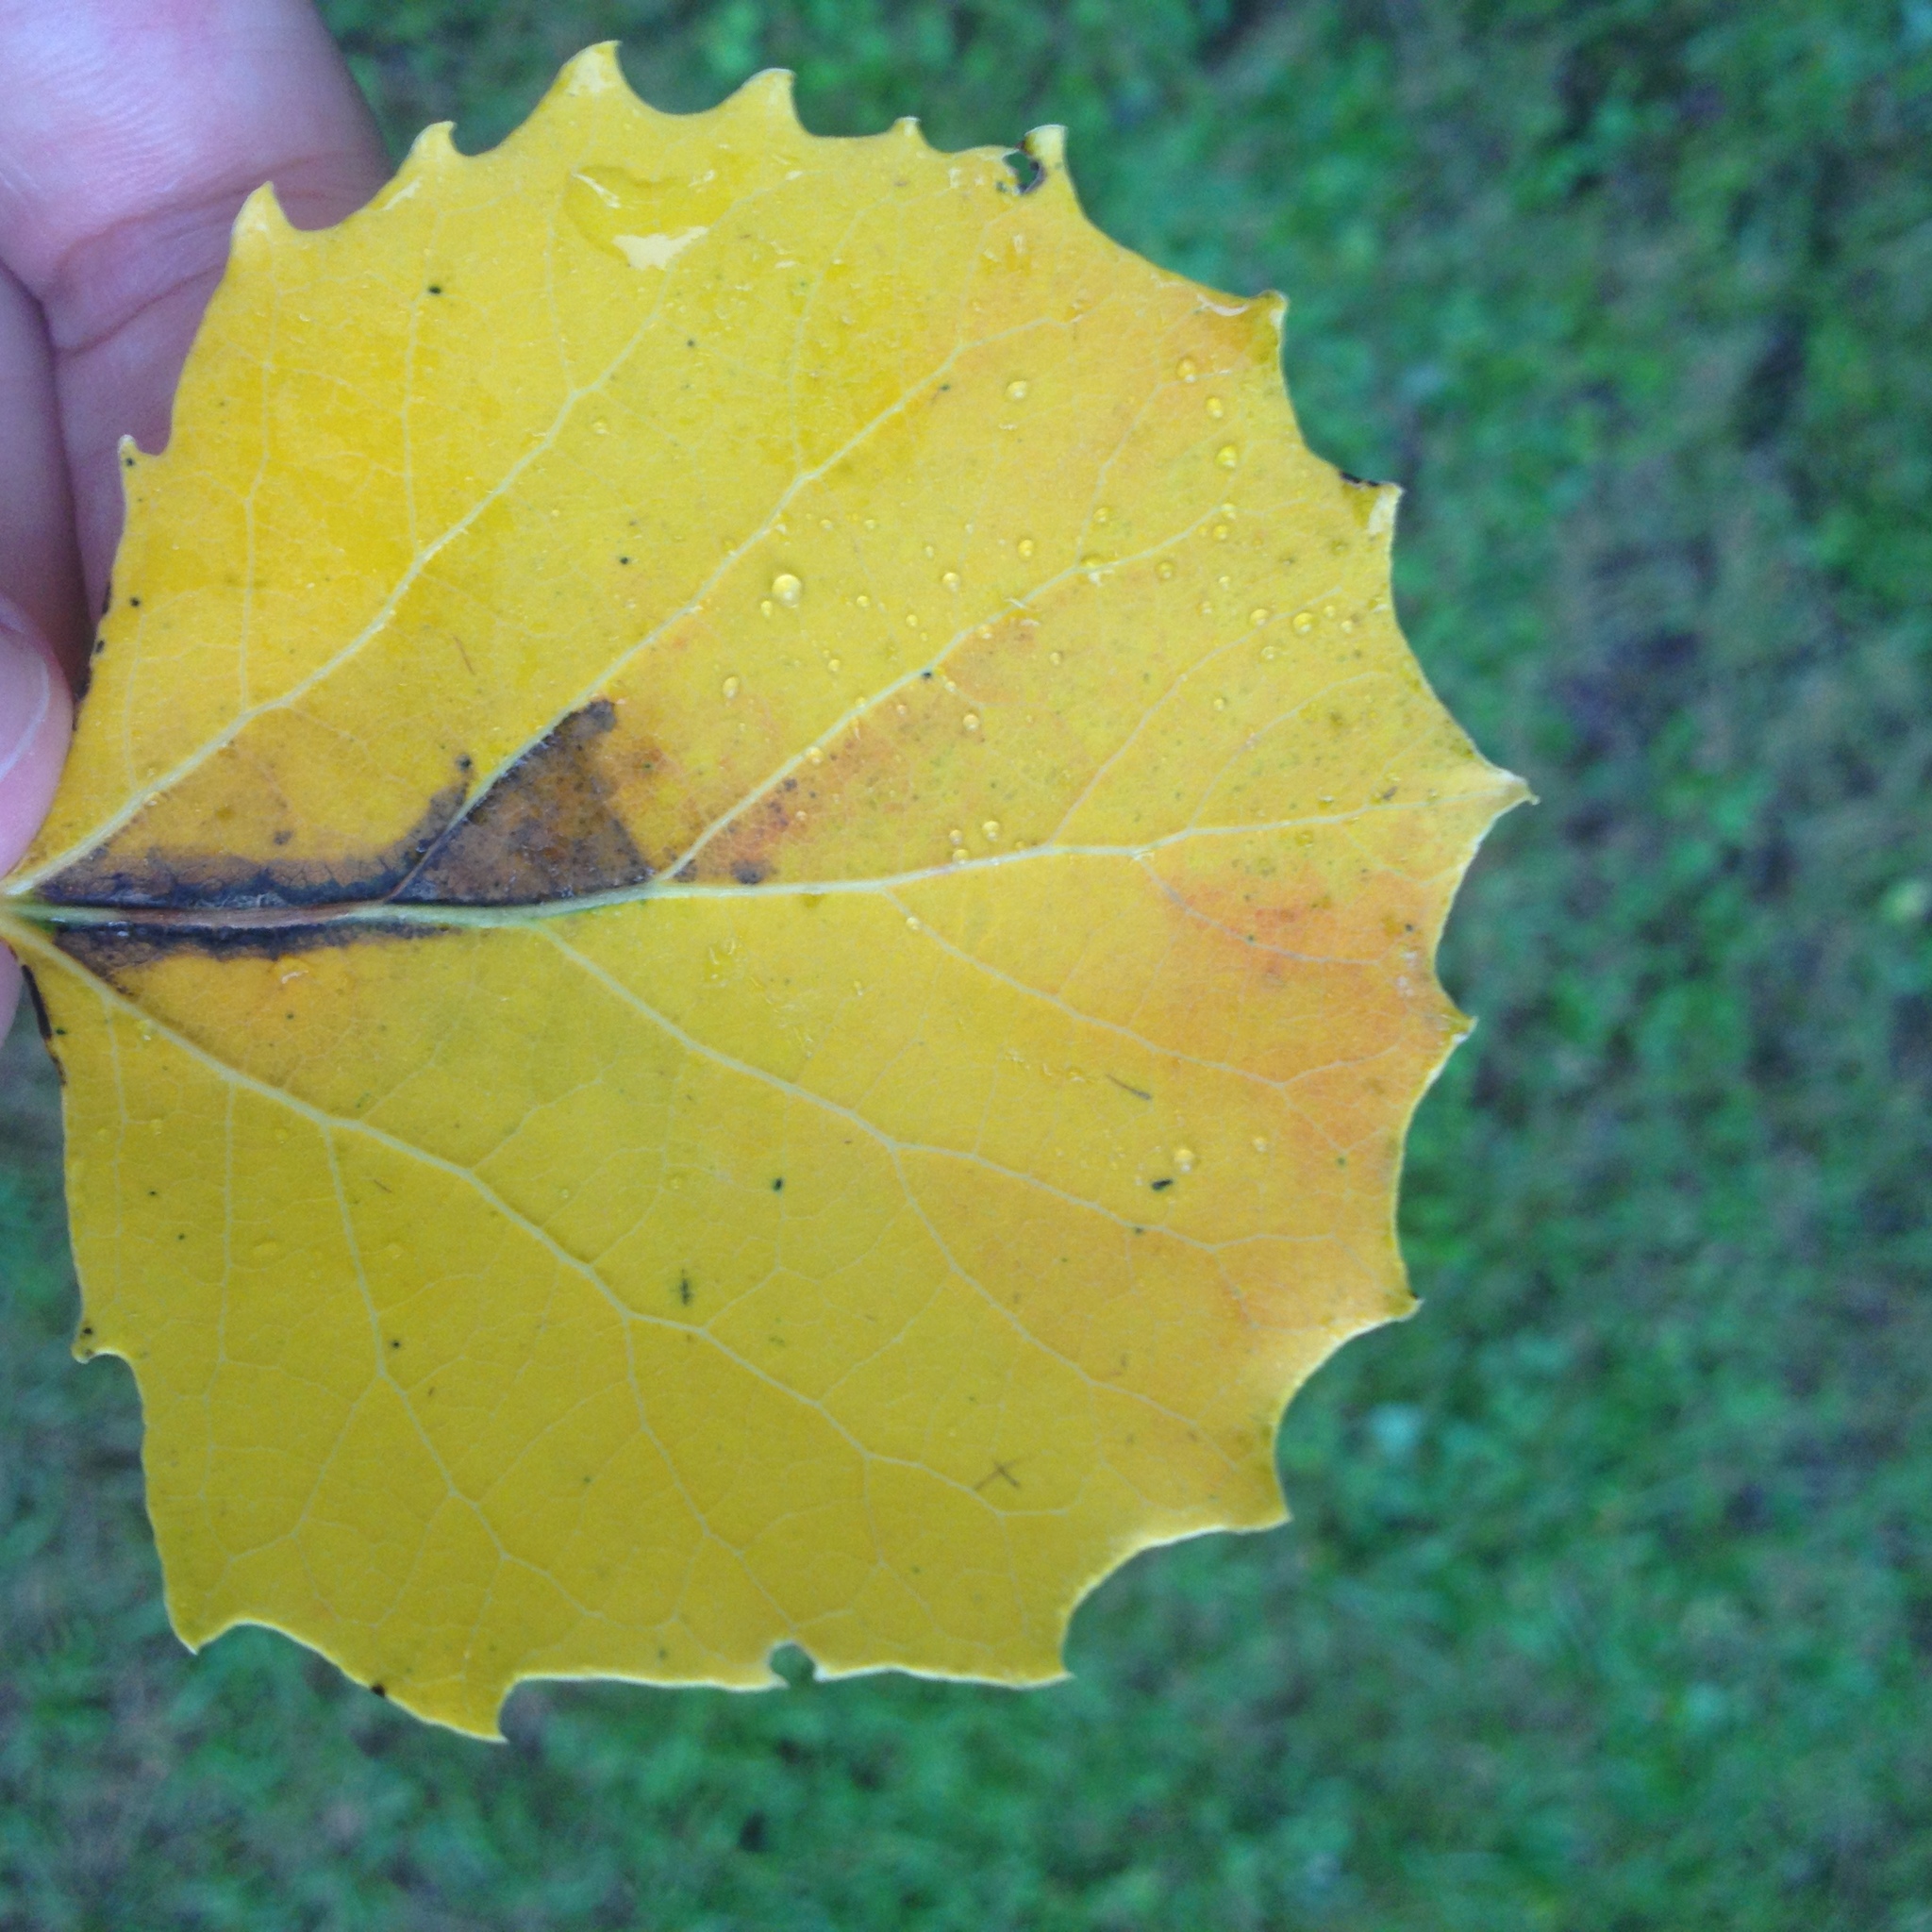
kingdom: Plantae
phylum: Tracheophyta
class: Magnoliopsida
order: Malpighiales
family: Salicaceae
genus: Populus
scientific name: Populus grandidentata
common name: Bigtooth aspen
